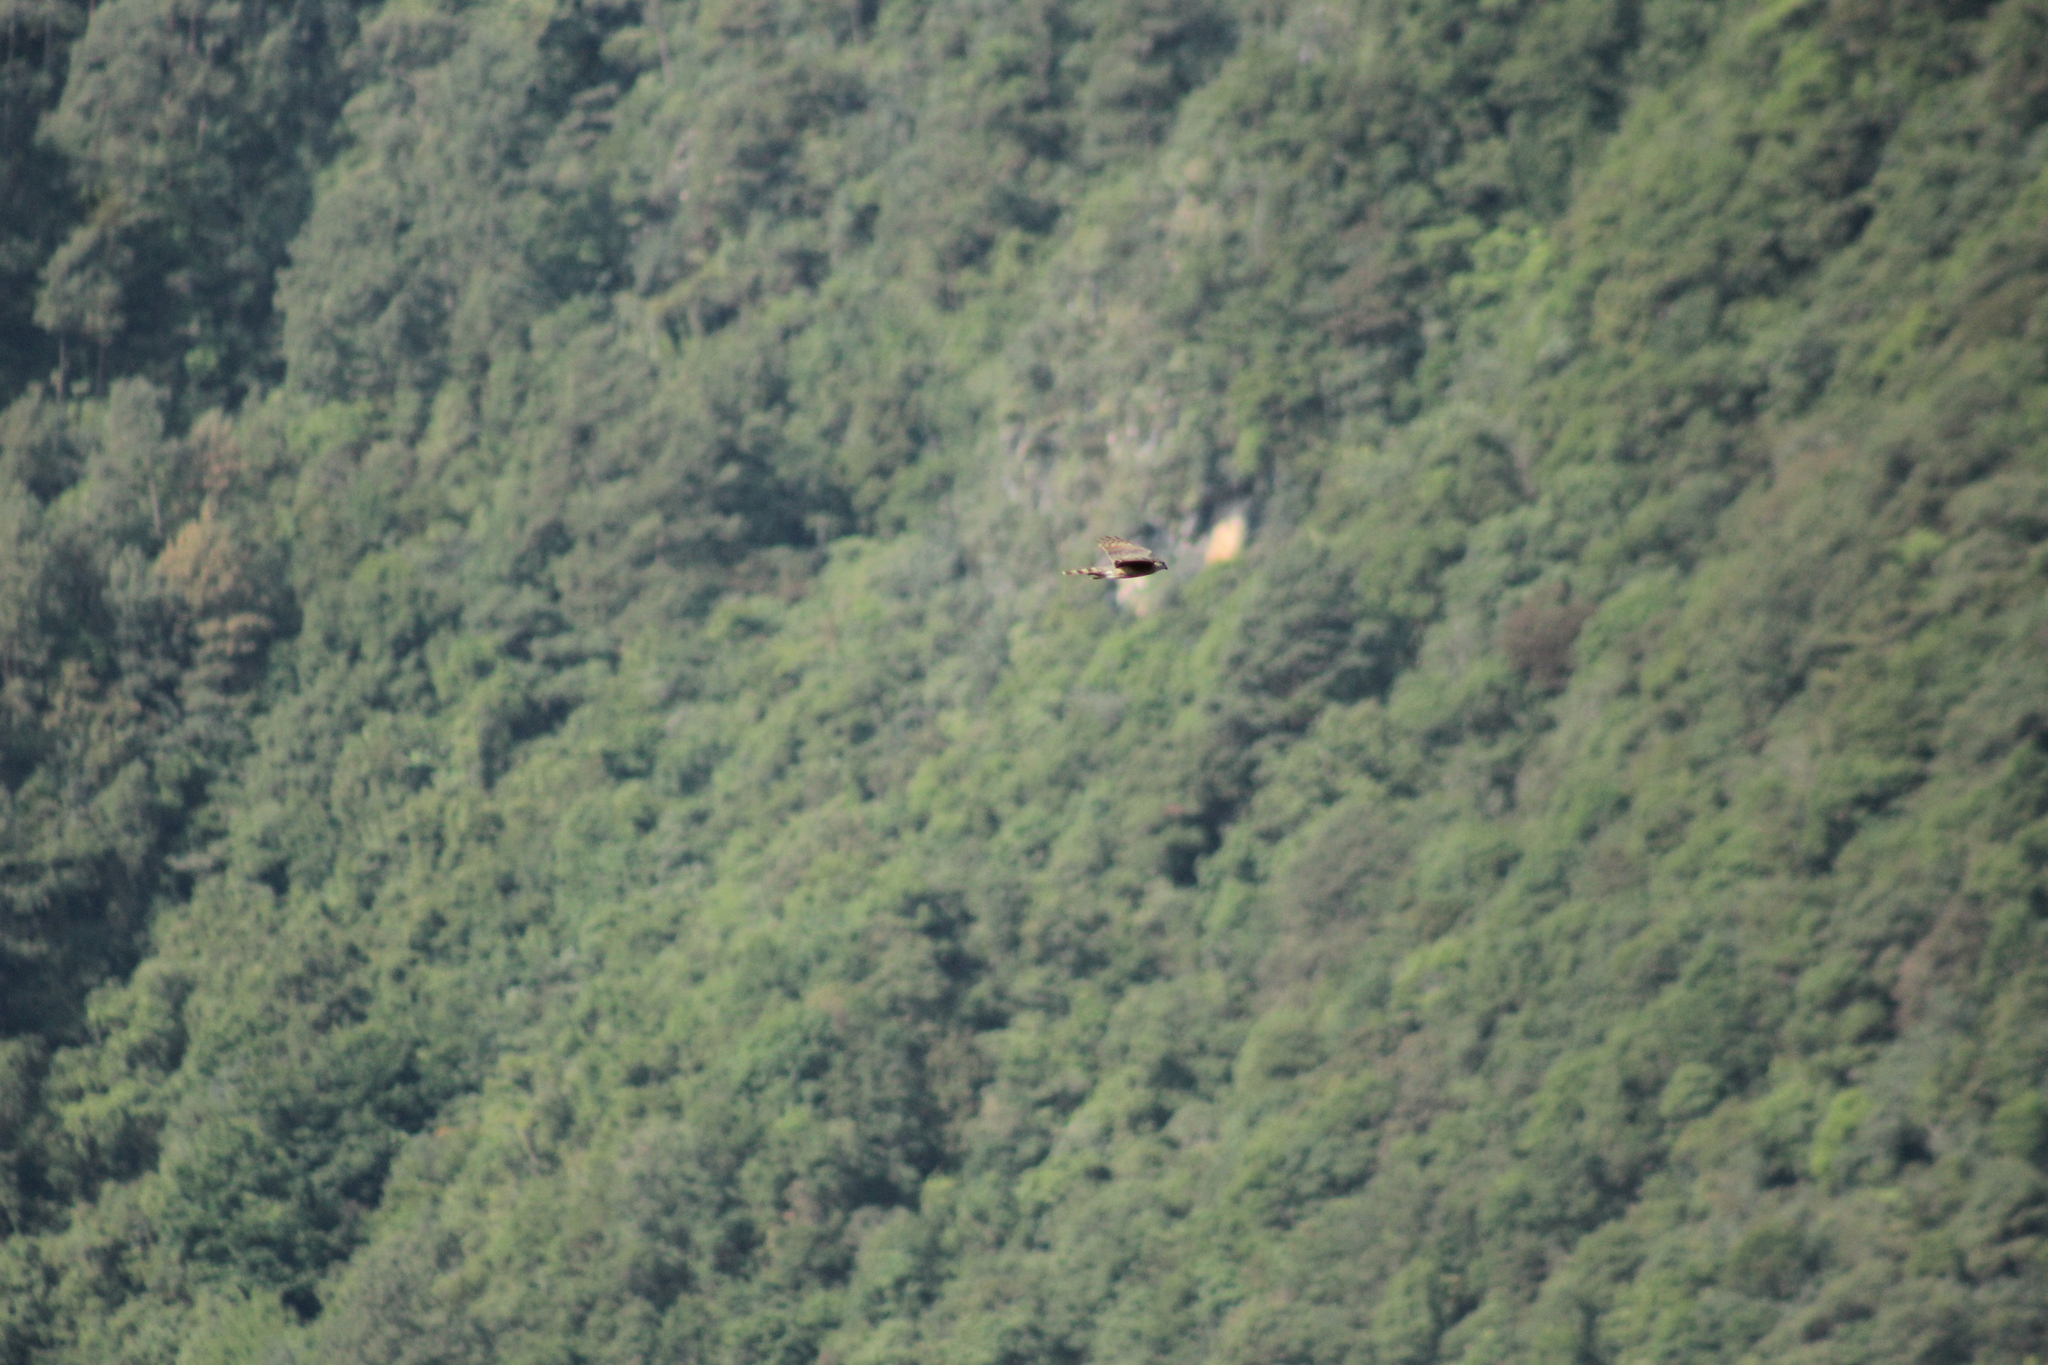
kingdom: Animalia
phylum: Chordata
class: Aves
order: Accipitriformes
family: Accipitridae
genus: Accipiter
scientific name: Accipiter cooperii
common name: Cooper's hawk
